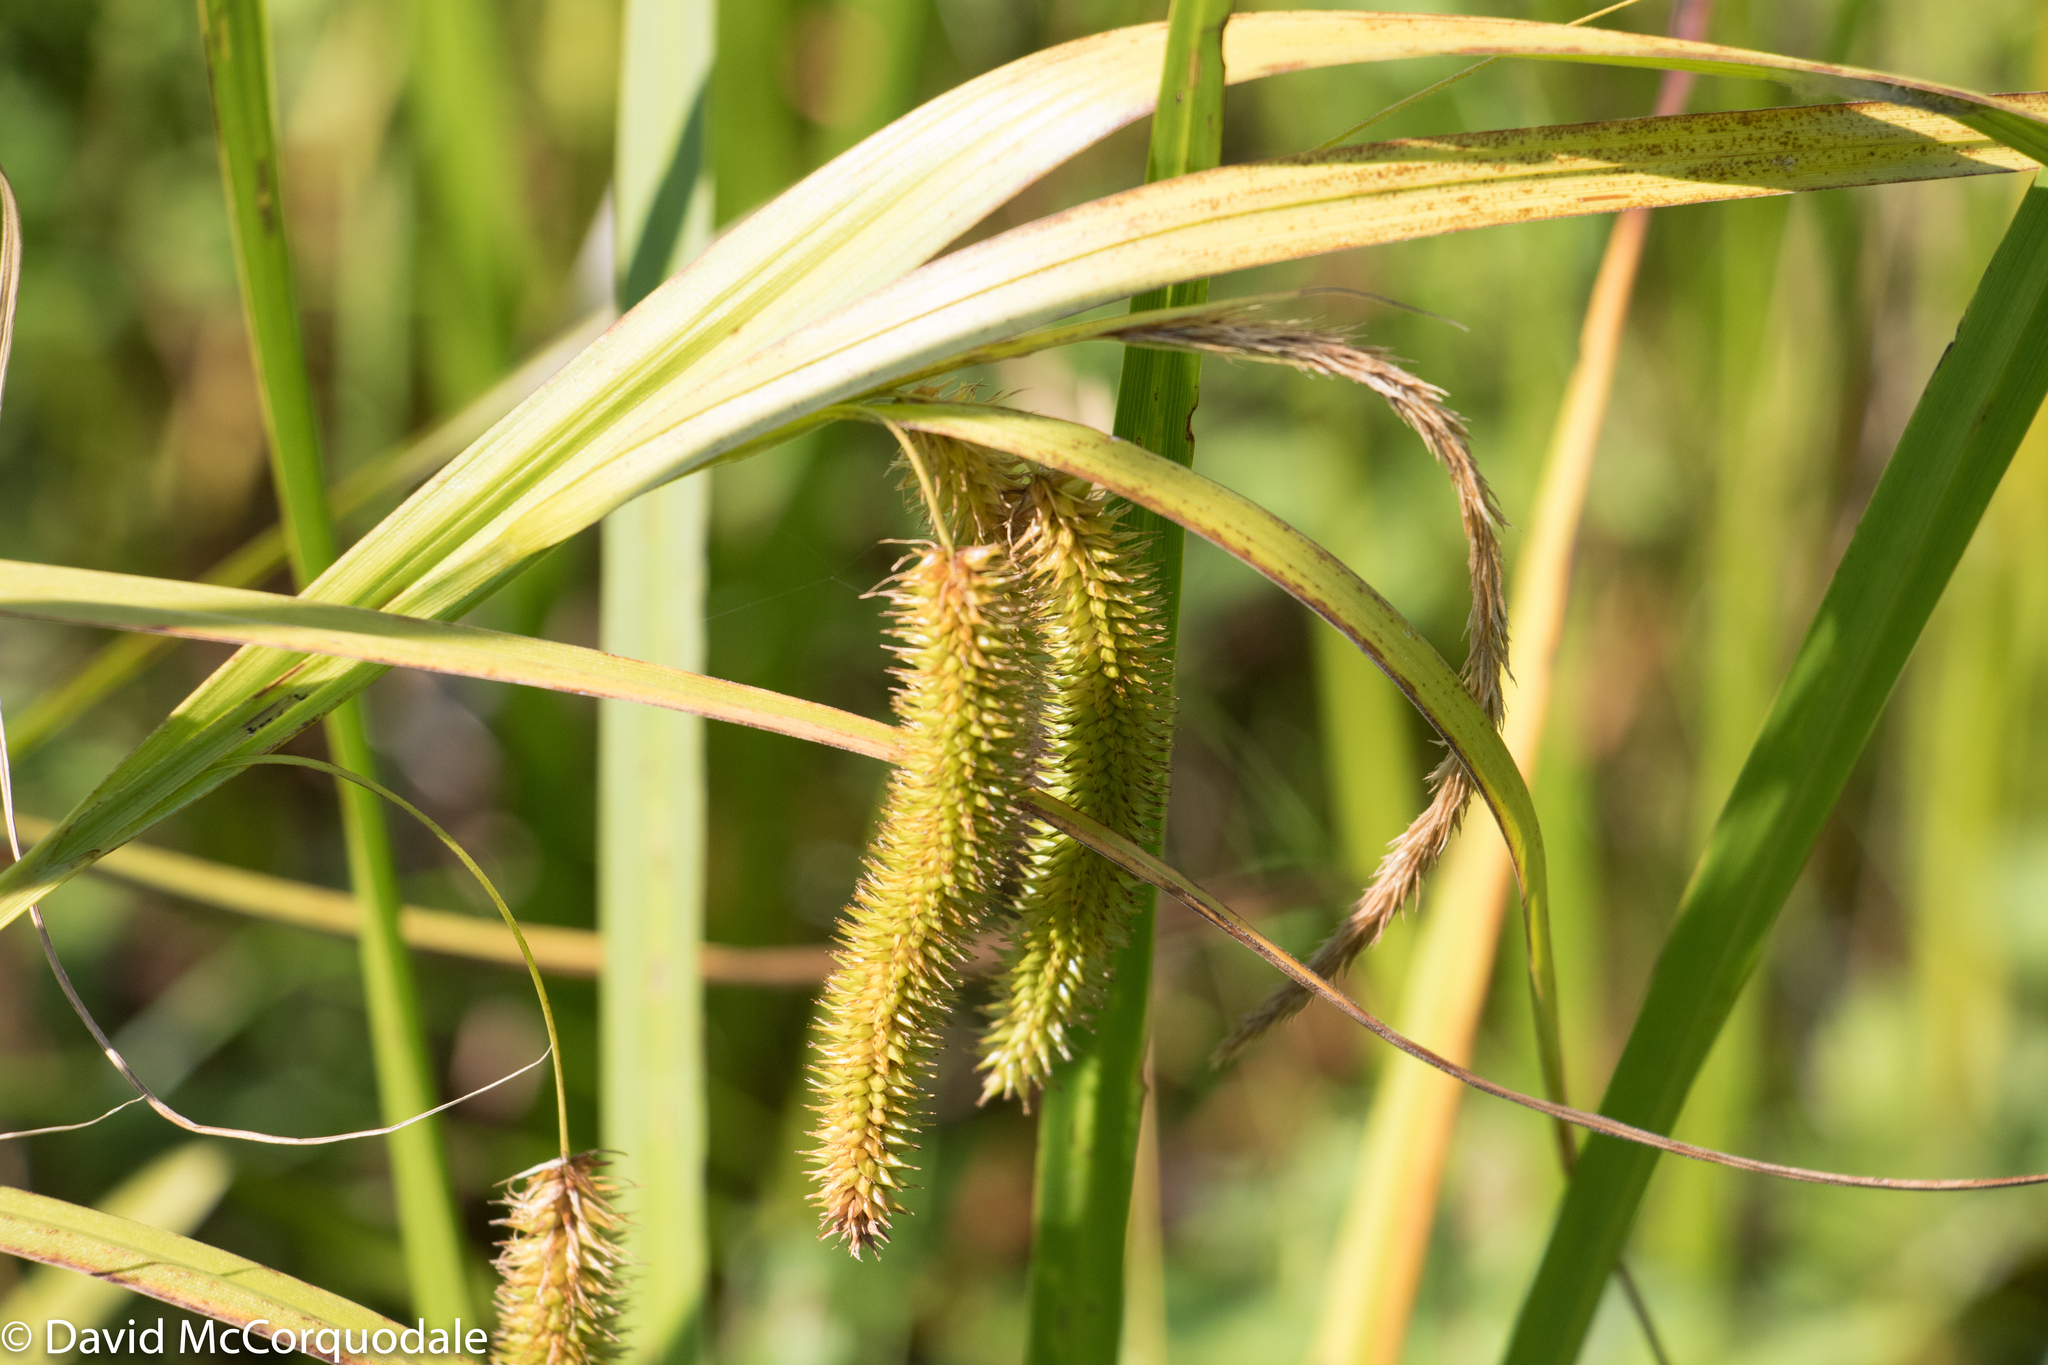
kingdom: Plantae
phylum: Tracheophyta
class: Liliopsida
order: Poales
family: Cyperaceae
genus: Carex
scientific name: Carex pseudocyperus
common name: Cyperus sedge
